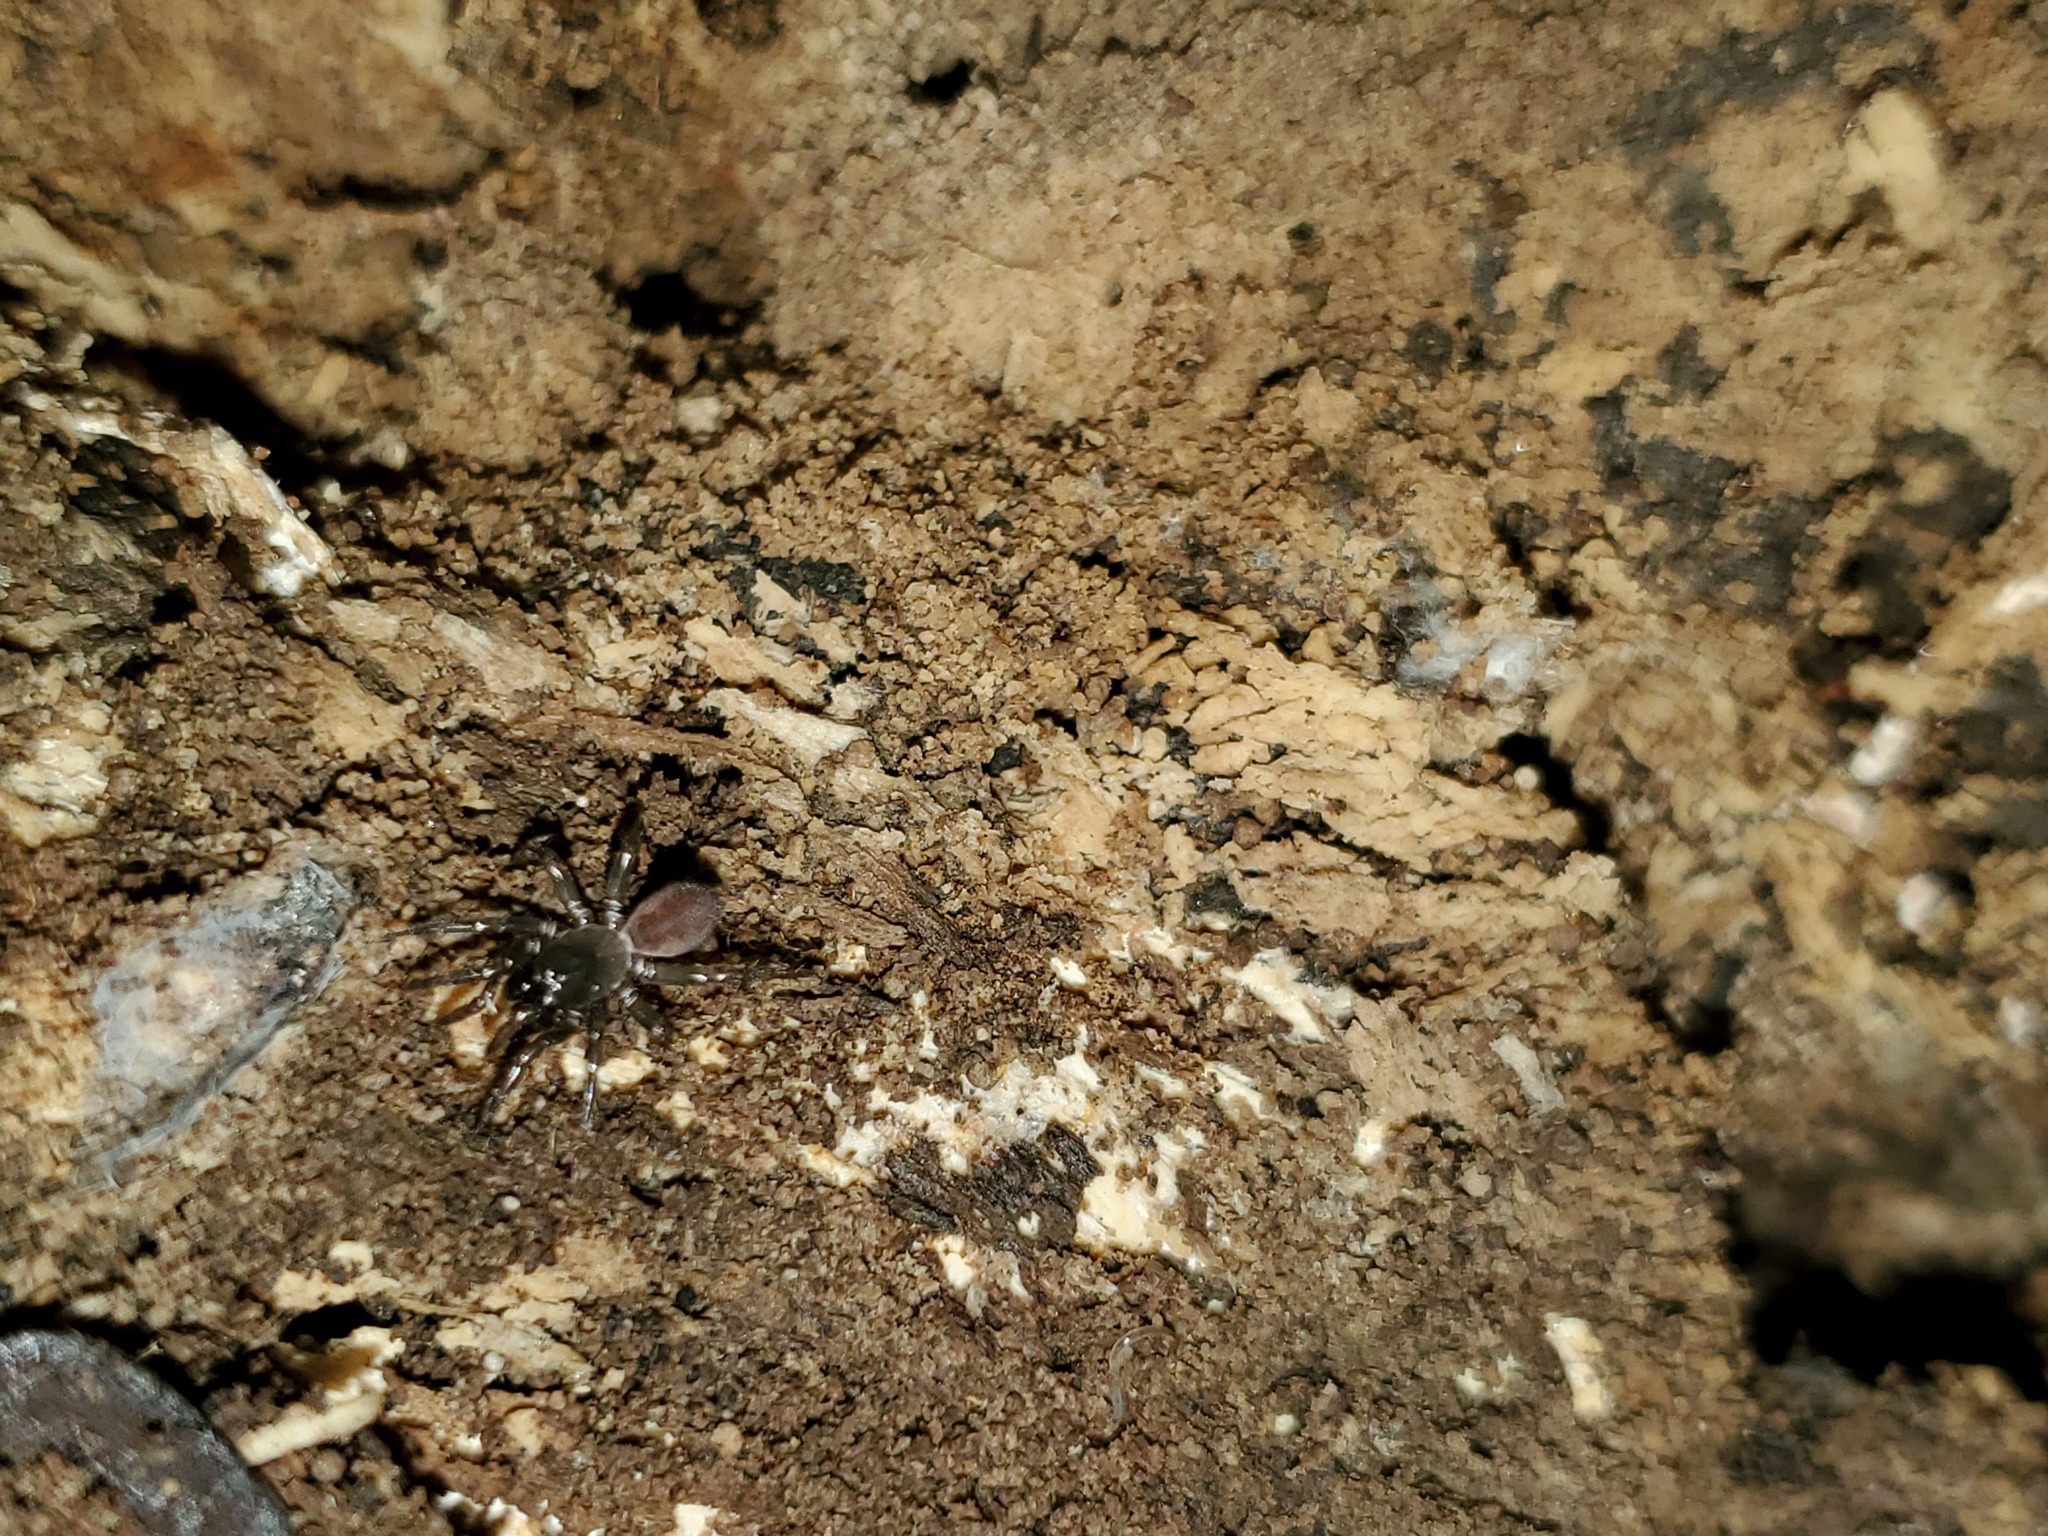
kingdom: Animalia
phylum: Arthropoda
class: Arachnida
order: Araneae
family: Antrodiaetidae
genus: Antrodiaetus
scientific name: Antrodiaetus unicolor
